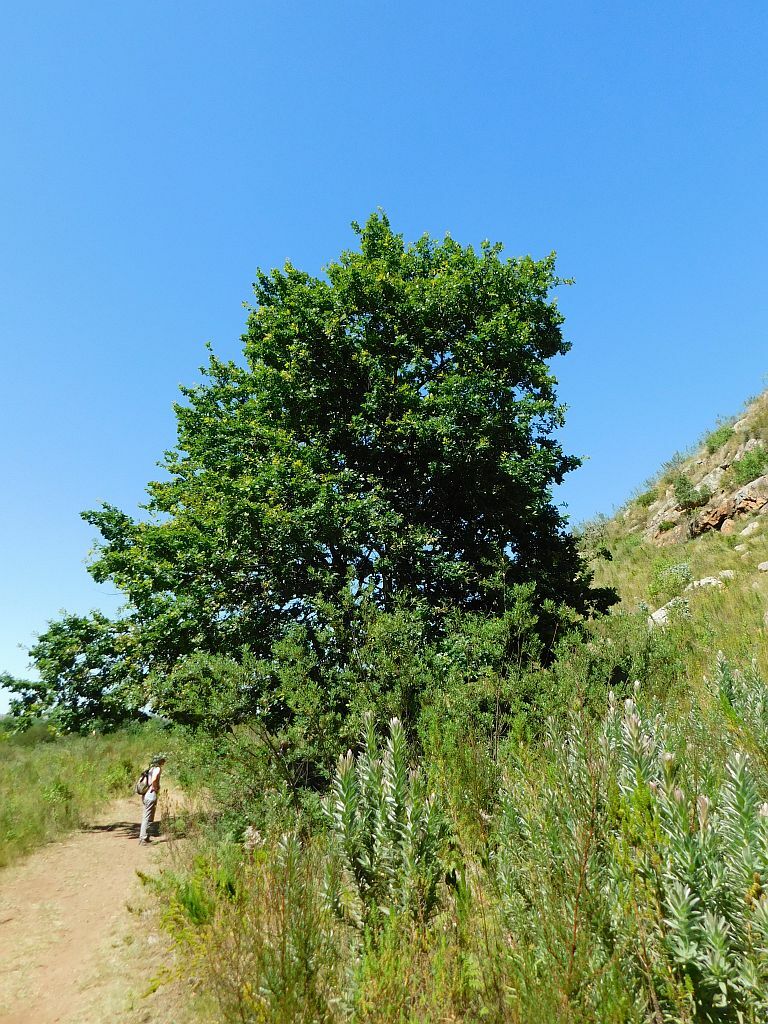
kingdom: Plantae
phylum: Tracheophyta
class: Magnoliopsida
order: Fagales
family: Fagaceae
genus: Quercus
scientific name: Quercus robur
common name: Pedunculate oak
